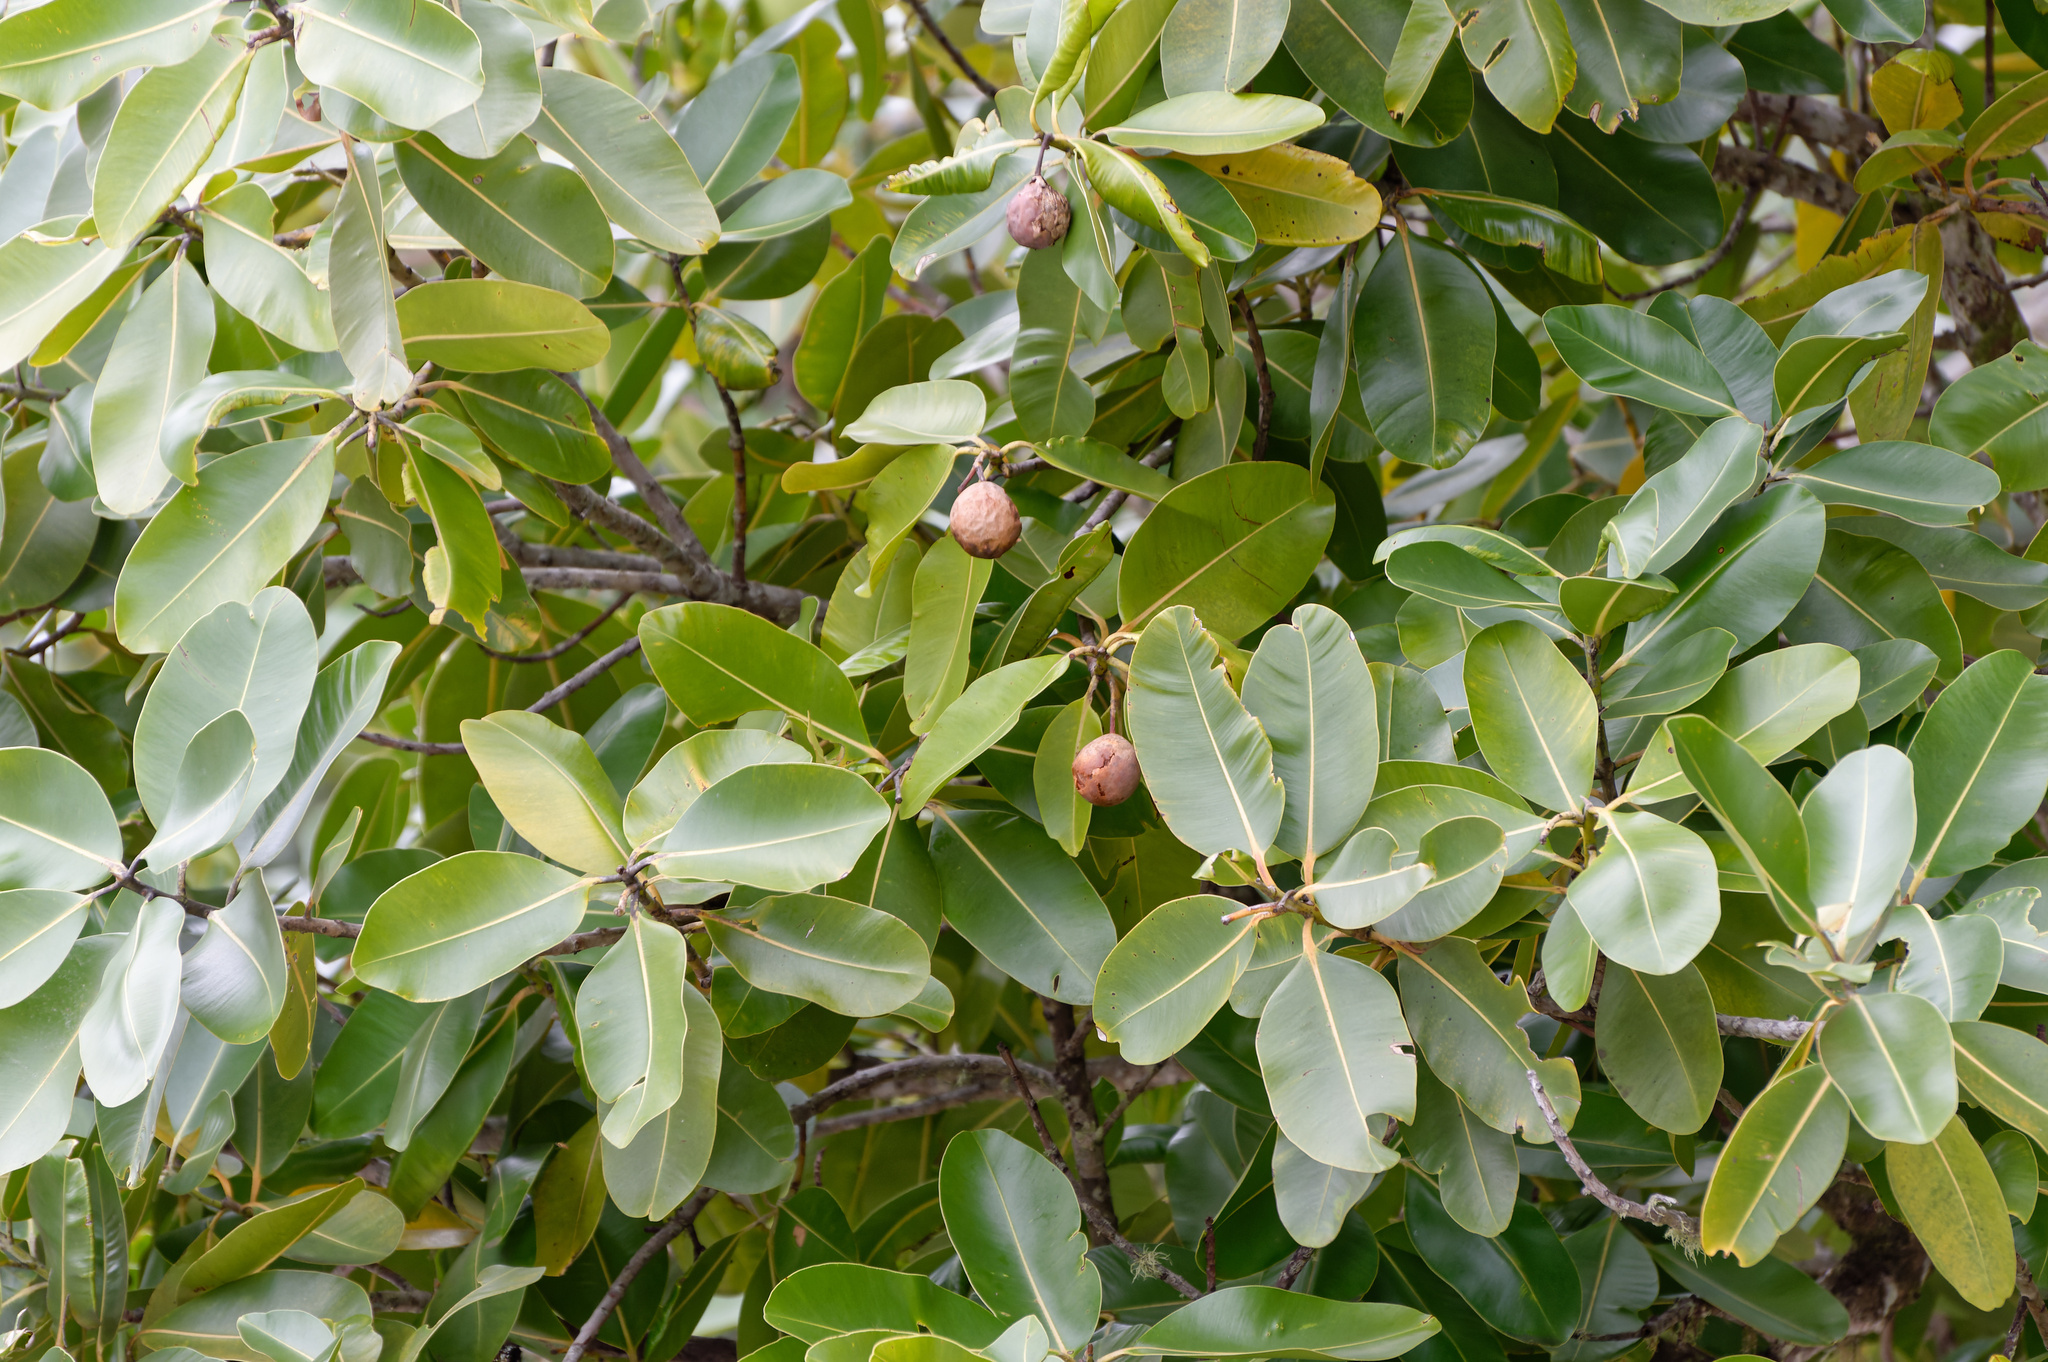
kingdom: Plantae
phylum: Tracheophyta
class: Magnoliopsida
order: Malpighiales
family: Calophyllaceae
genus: Calophyllum
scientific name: Calophyllum inophyllum
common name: Alexandrian laurel
